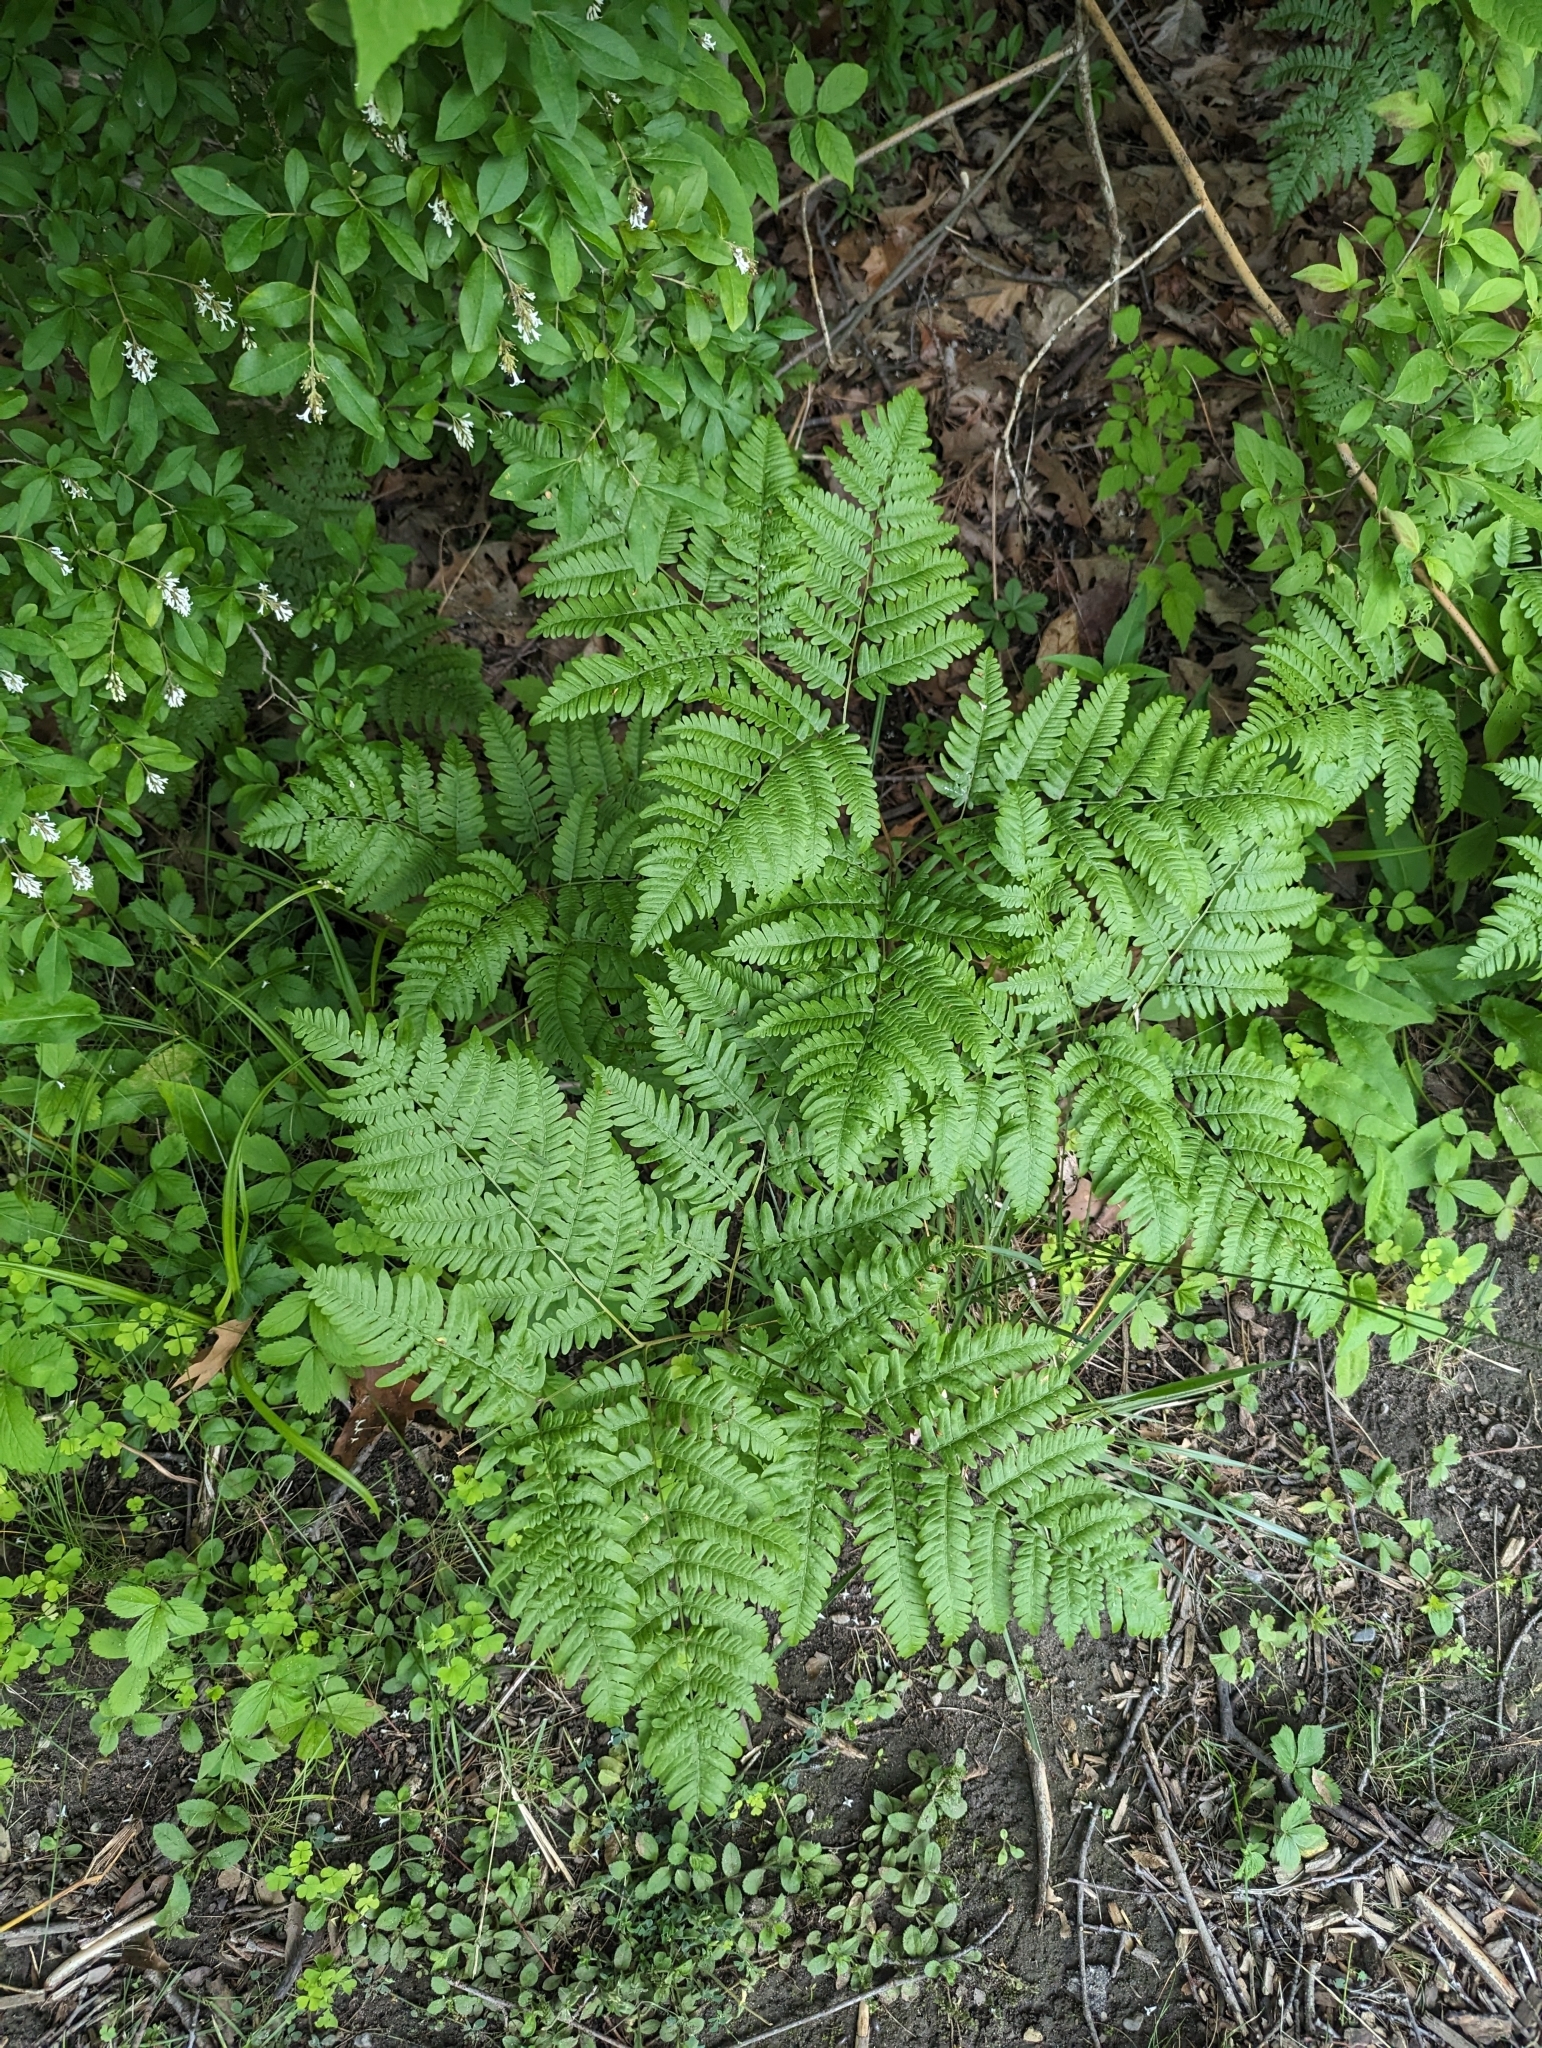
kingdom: Plantae
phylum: Tracheophyta
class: Polypodiopsida
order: Polypodiales
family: Dennstaedtiaceae
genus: Pteridium
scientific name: Pteridium aquilinum
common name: Bracken
